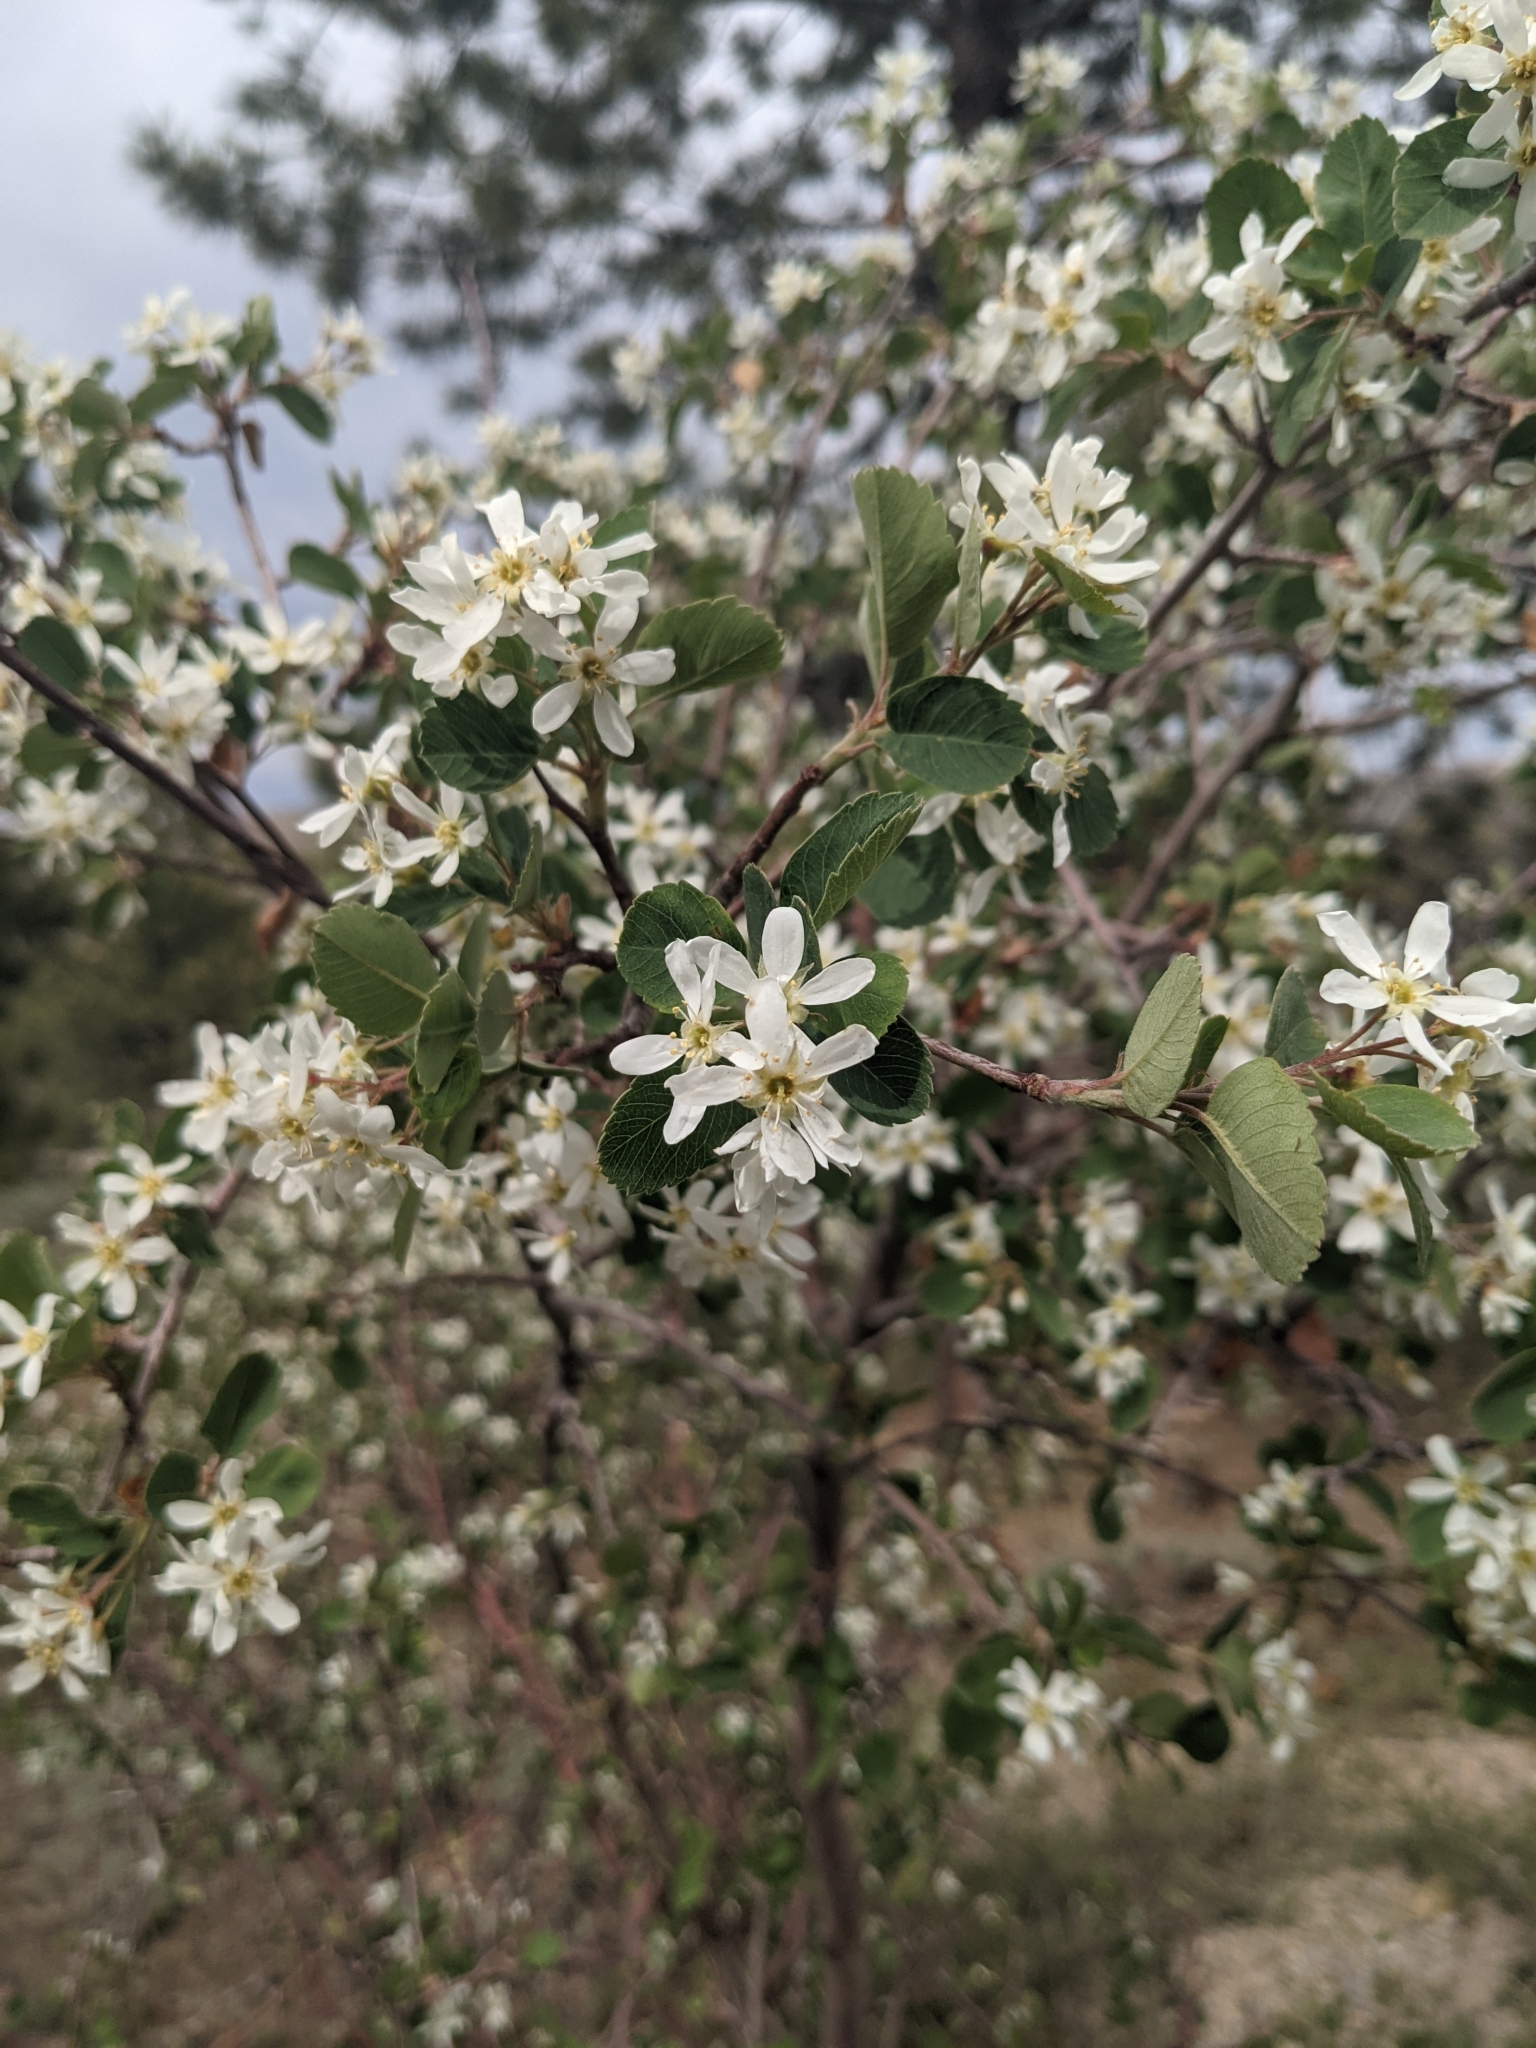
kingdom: Plantae
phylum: Tracheophyta
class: Magnoliopsida
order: Rosales
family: Rosaceae
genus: Amelanchier
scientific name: Amelanchier utahensis
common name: Utah serviceberry
